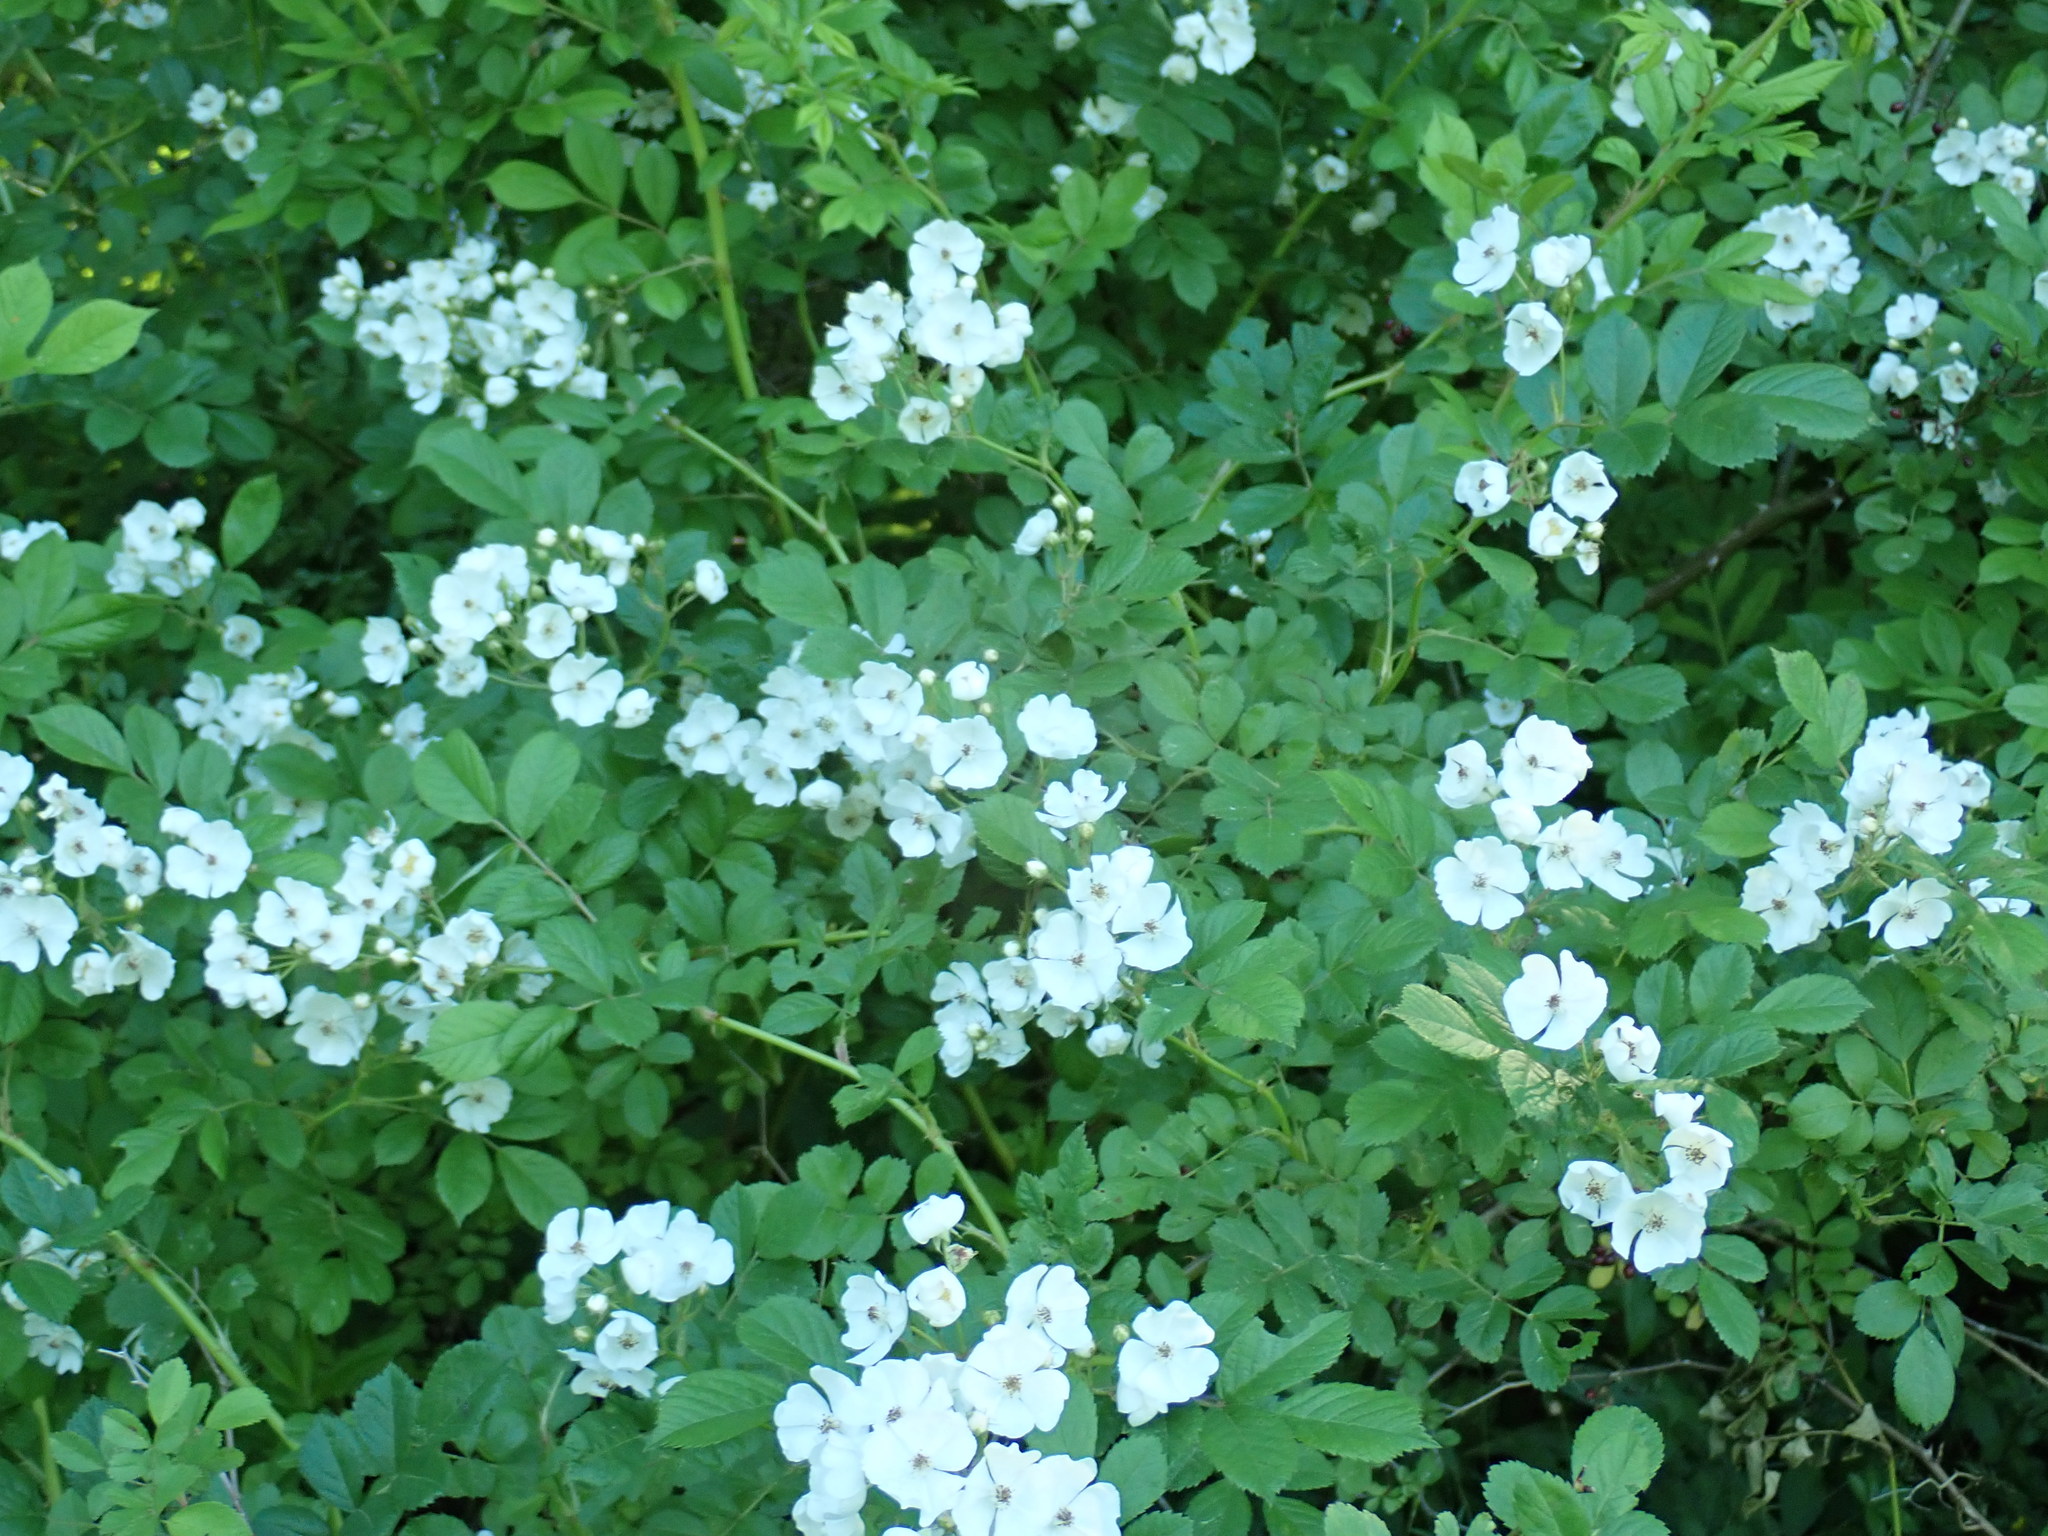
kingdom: Plantae
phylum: Tracheophyta
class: Magnoliopsida
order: Rosales
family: Rosaceae
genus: Rosa
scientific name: Rosa multiflora
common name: Multiflora rose
